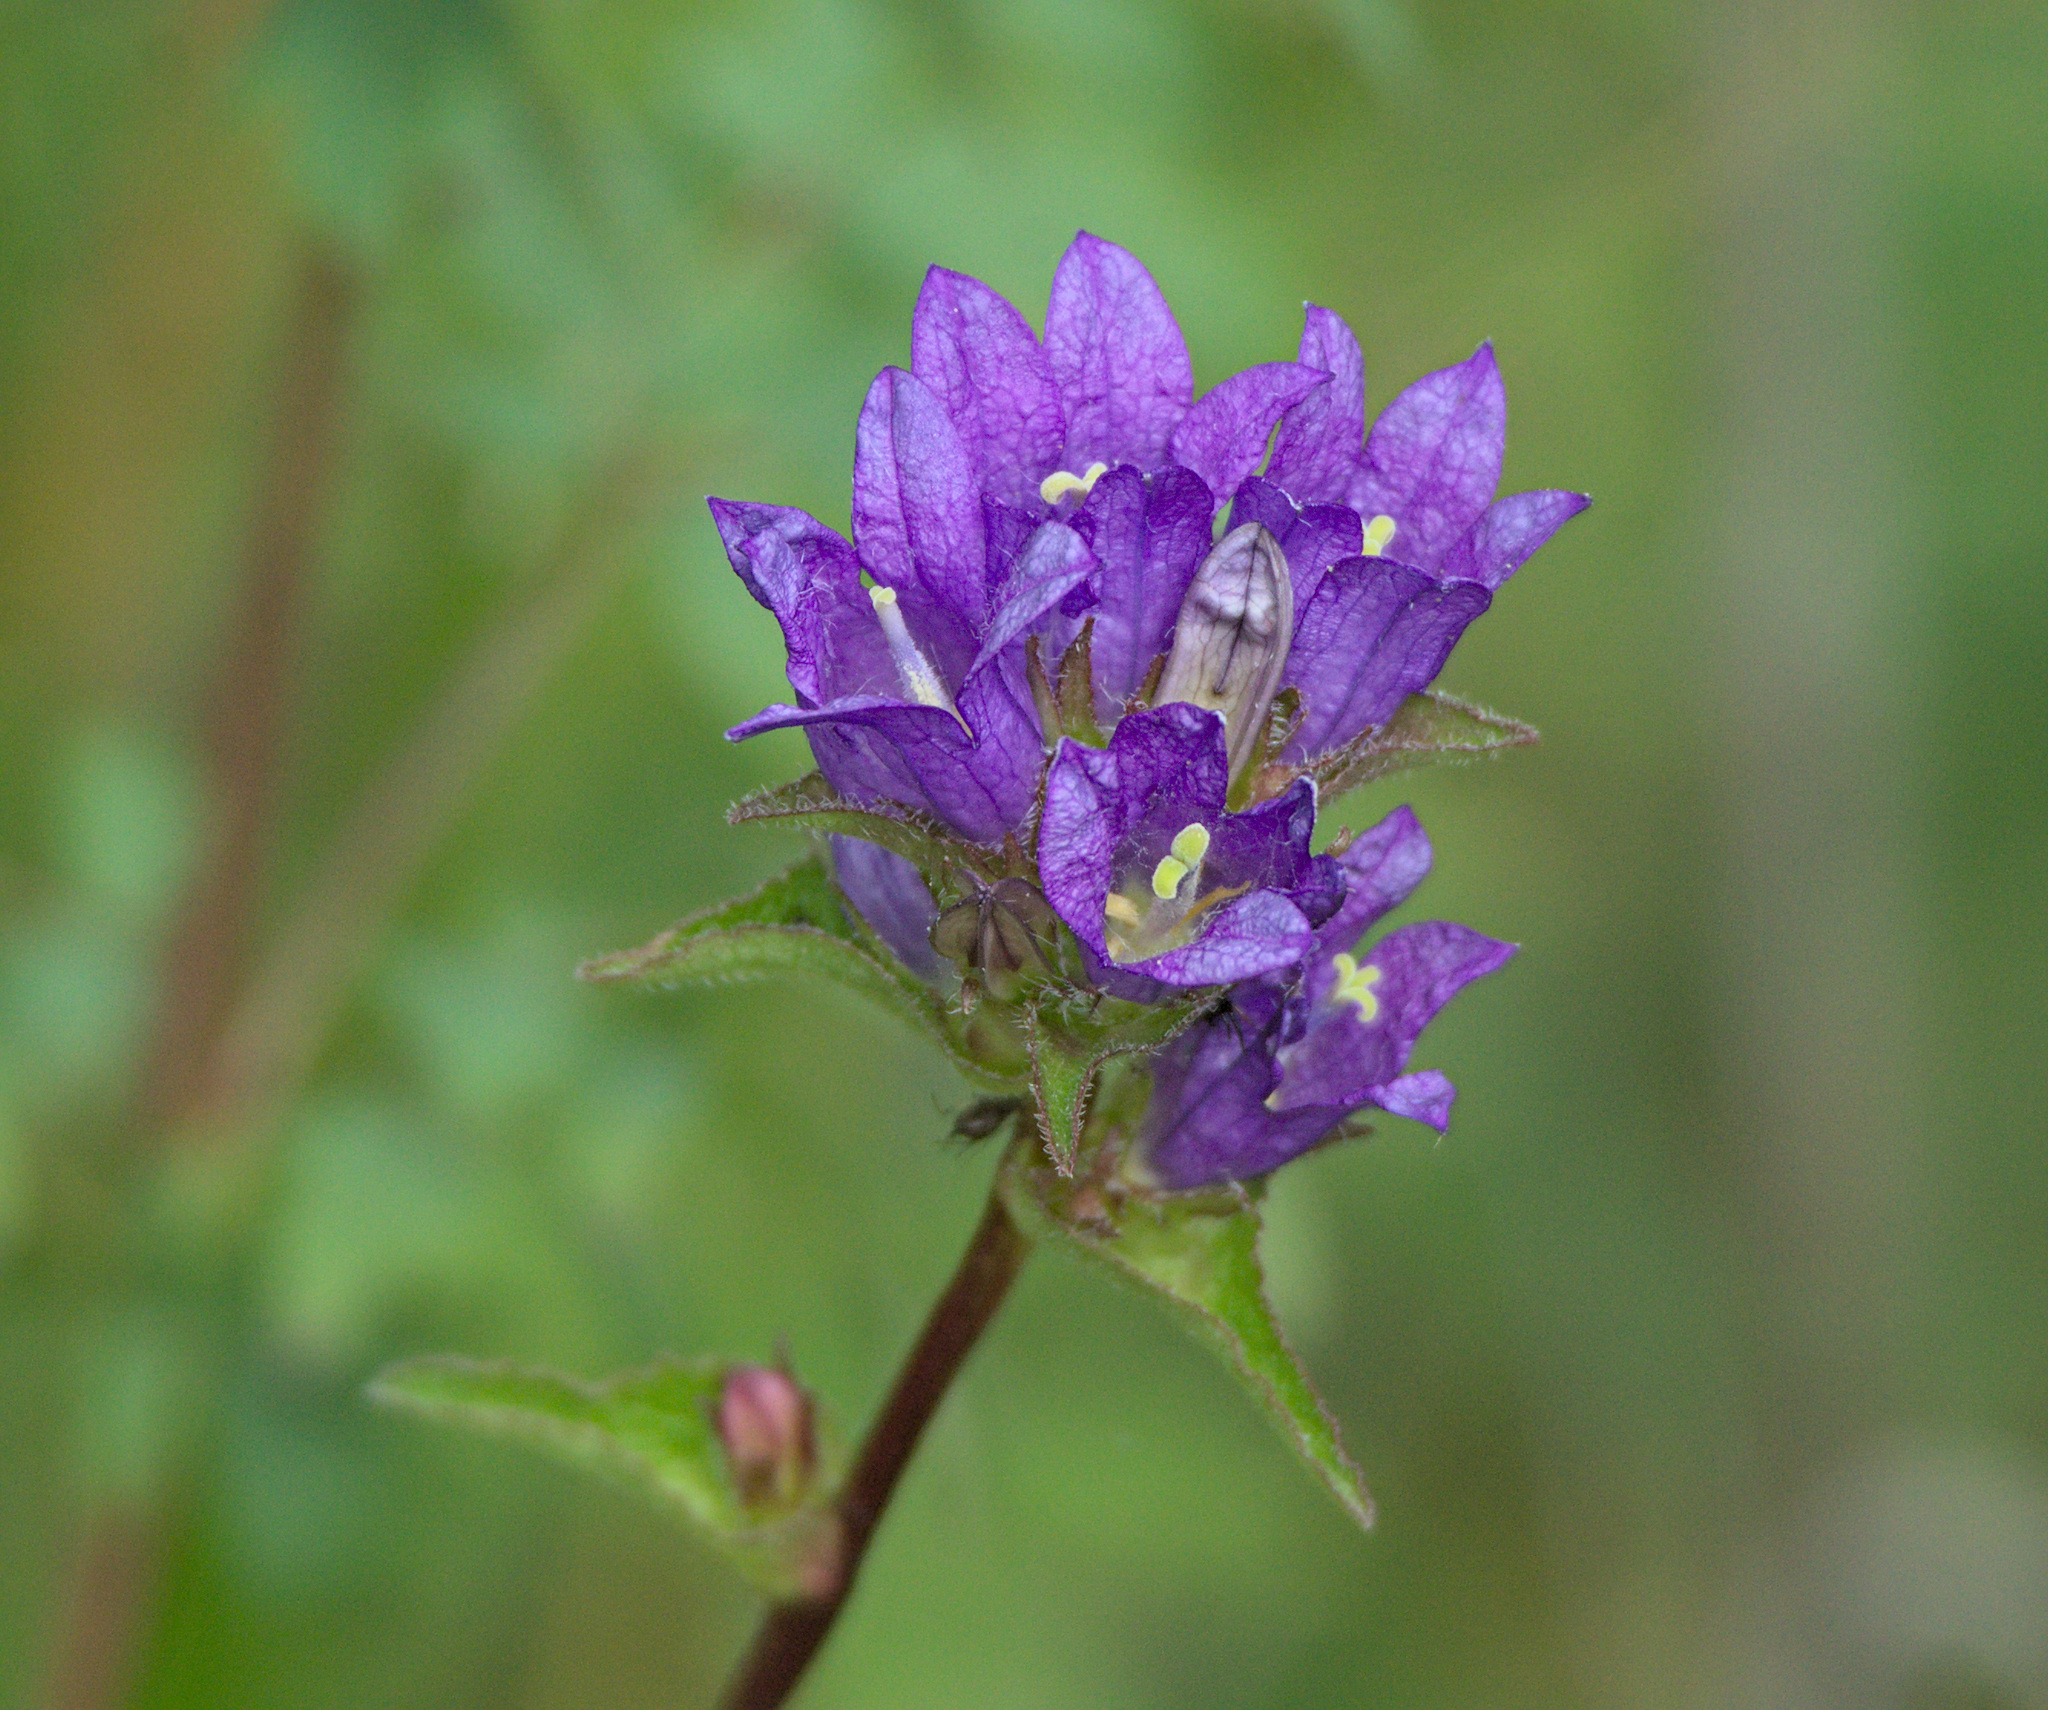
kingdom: Plantae
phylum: Tracheophyta
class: Magnoliopsida
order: Asterales
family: Campanulaceae
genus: Campanula
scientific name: Campanula glomerata
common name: Clustered bellflower
